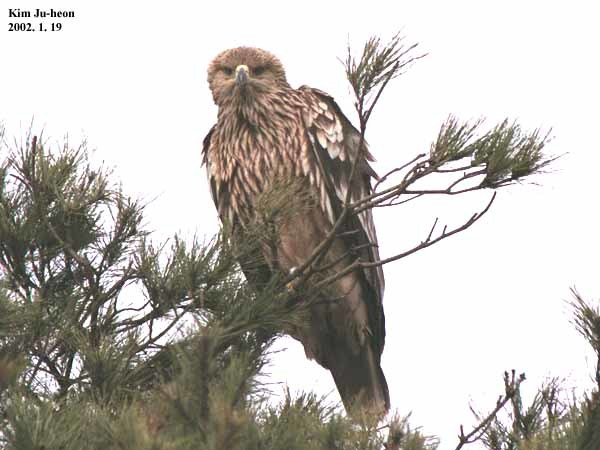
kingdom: Animalia
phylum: Chordata
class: Aves
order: Accipitriformes
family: Accipitridae
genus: Aquila
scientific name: Aquila heliaca
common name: Eastern imperial eagle
